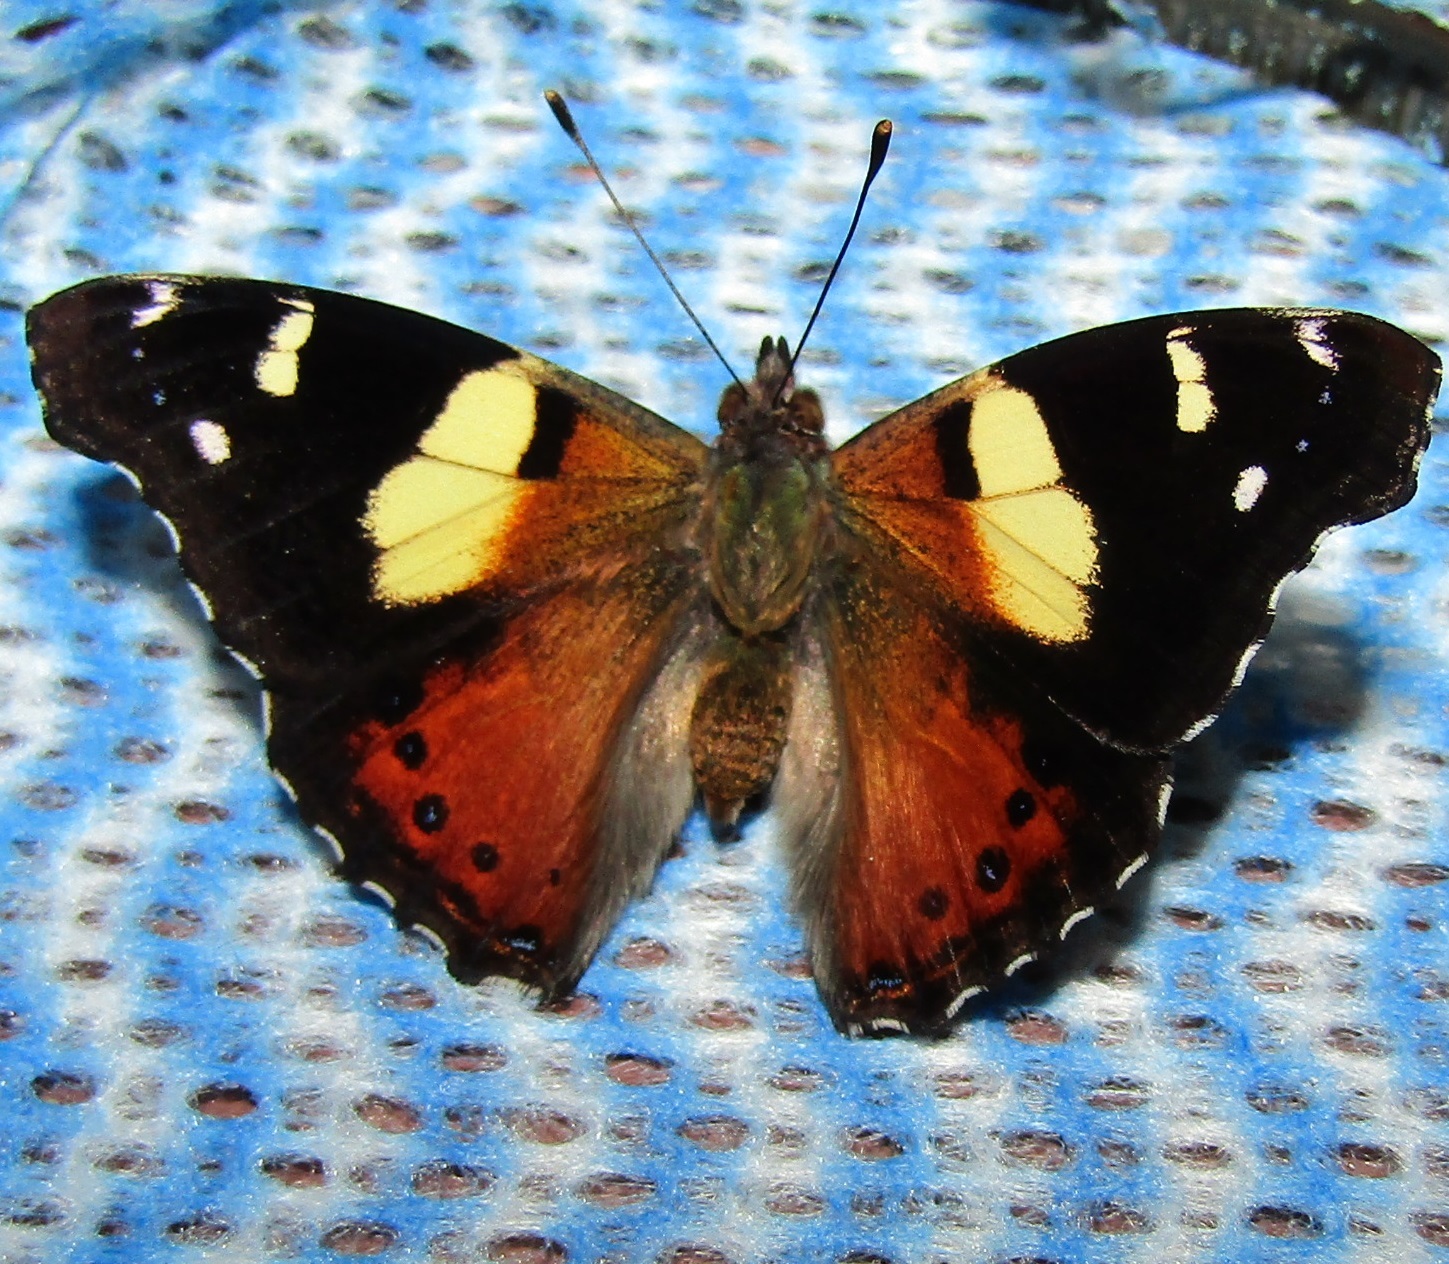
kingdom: Animalia
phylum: Arthropoda
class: Insecta
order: Lepidoptera
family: Nymphalidae
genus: Vanessa
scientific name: Vanessa itea
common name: Yellow admiral
